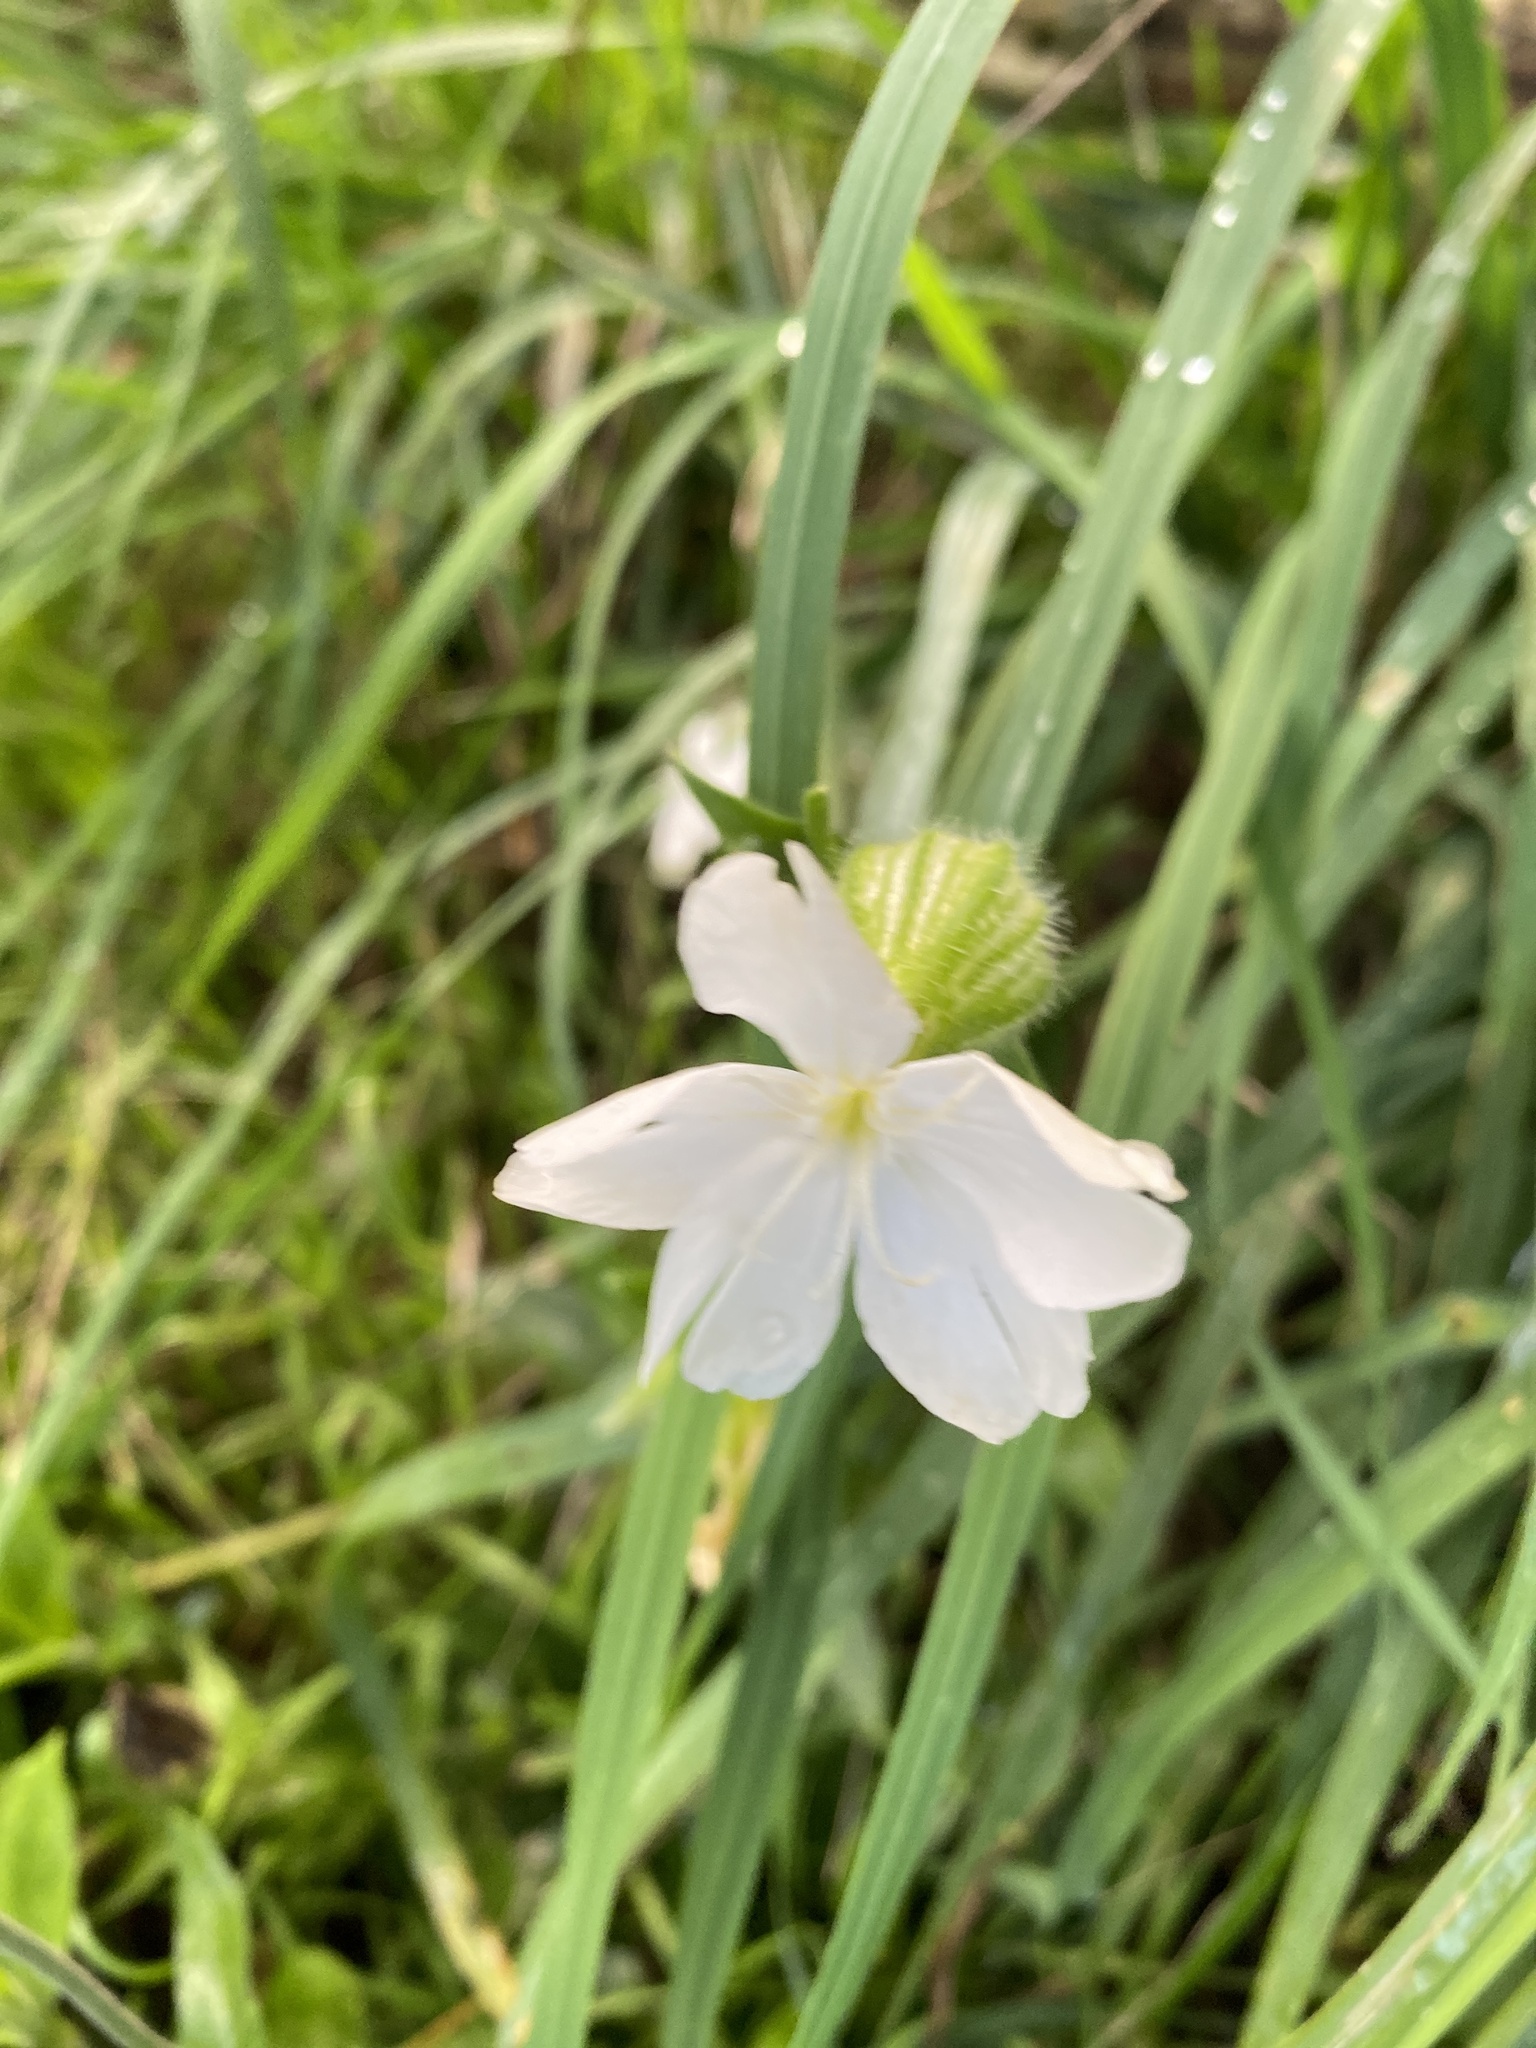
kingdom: Plantae
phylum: Tracheophyta
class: Magnoliopsida
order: Caryophyllales
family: Caryophyllaceae
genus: Silene
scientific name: Silene latifolia
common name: White campion
